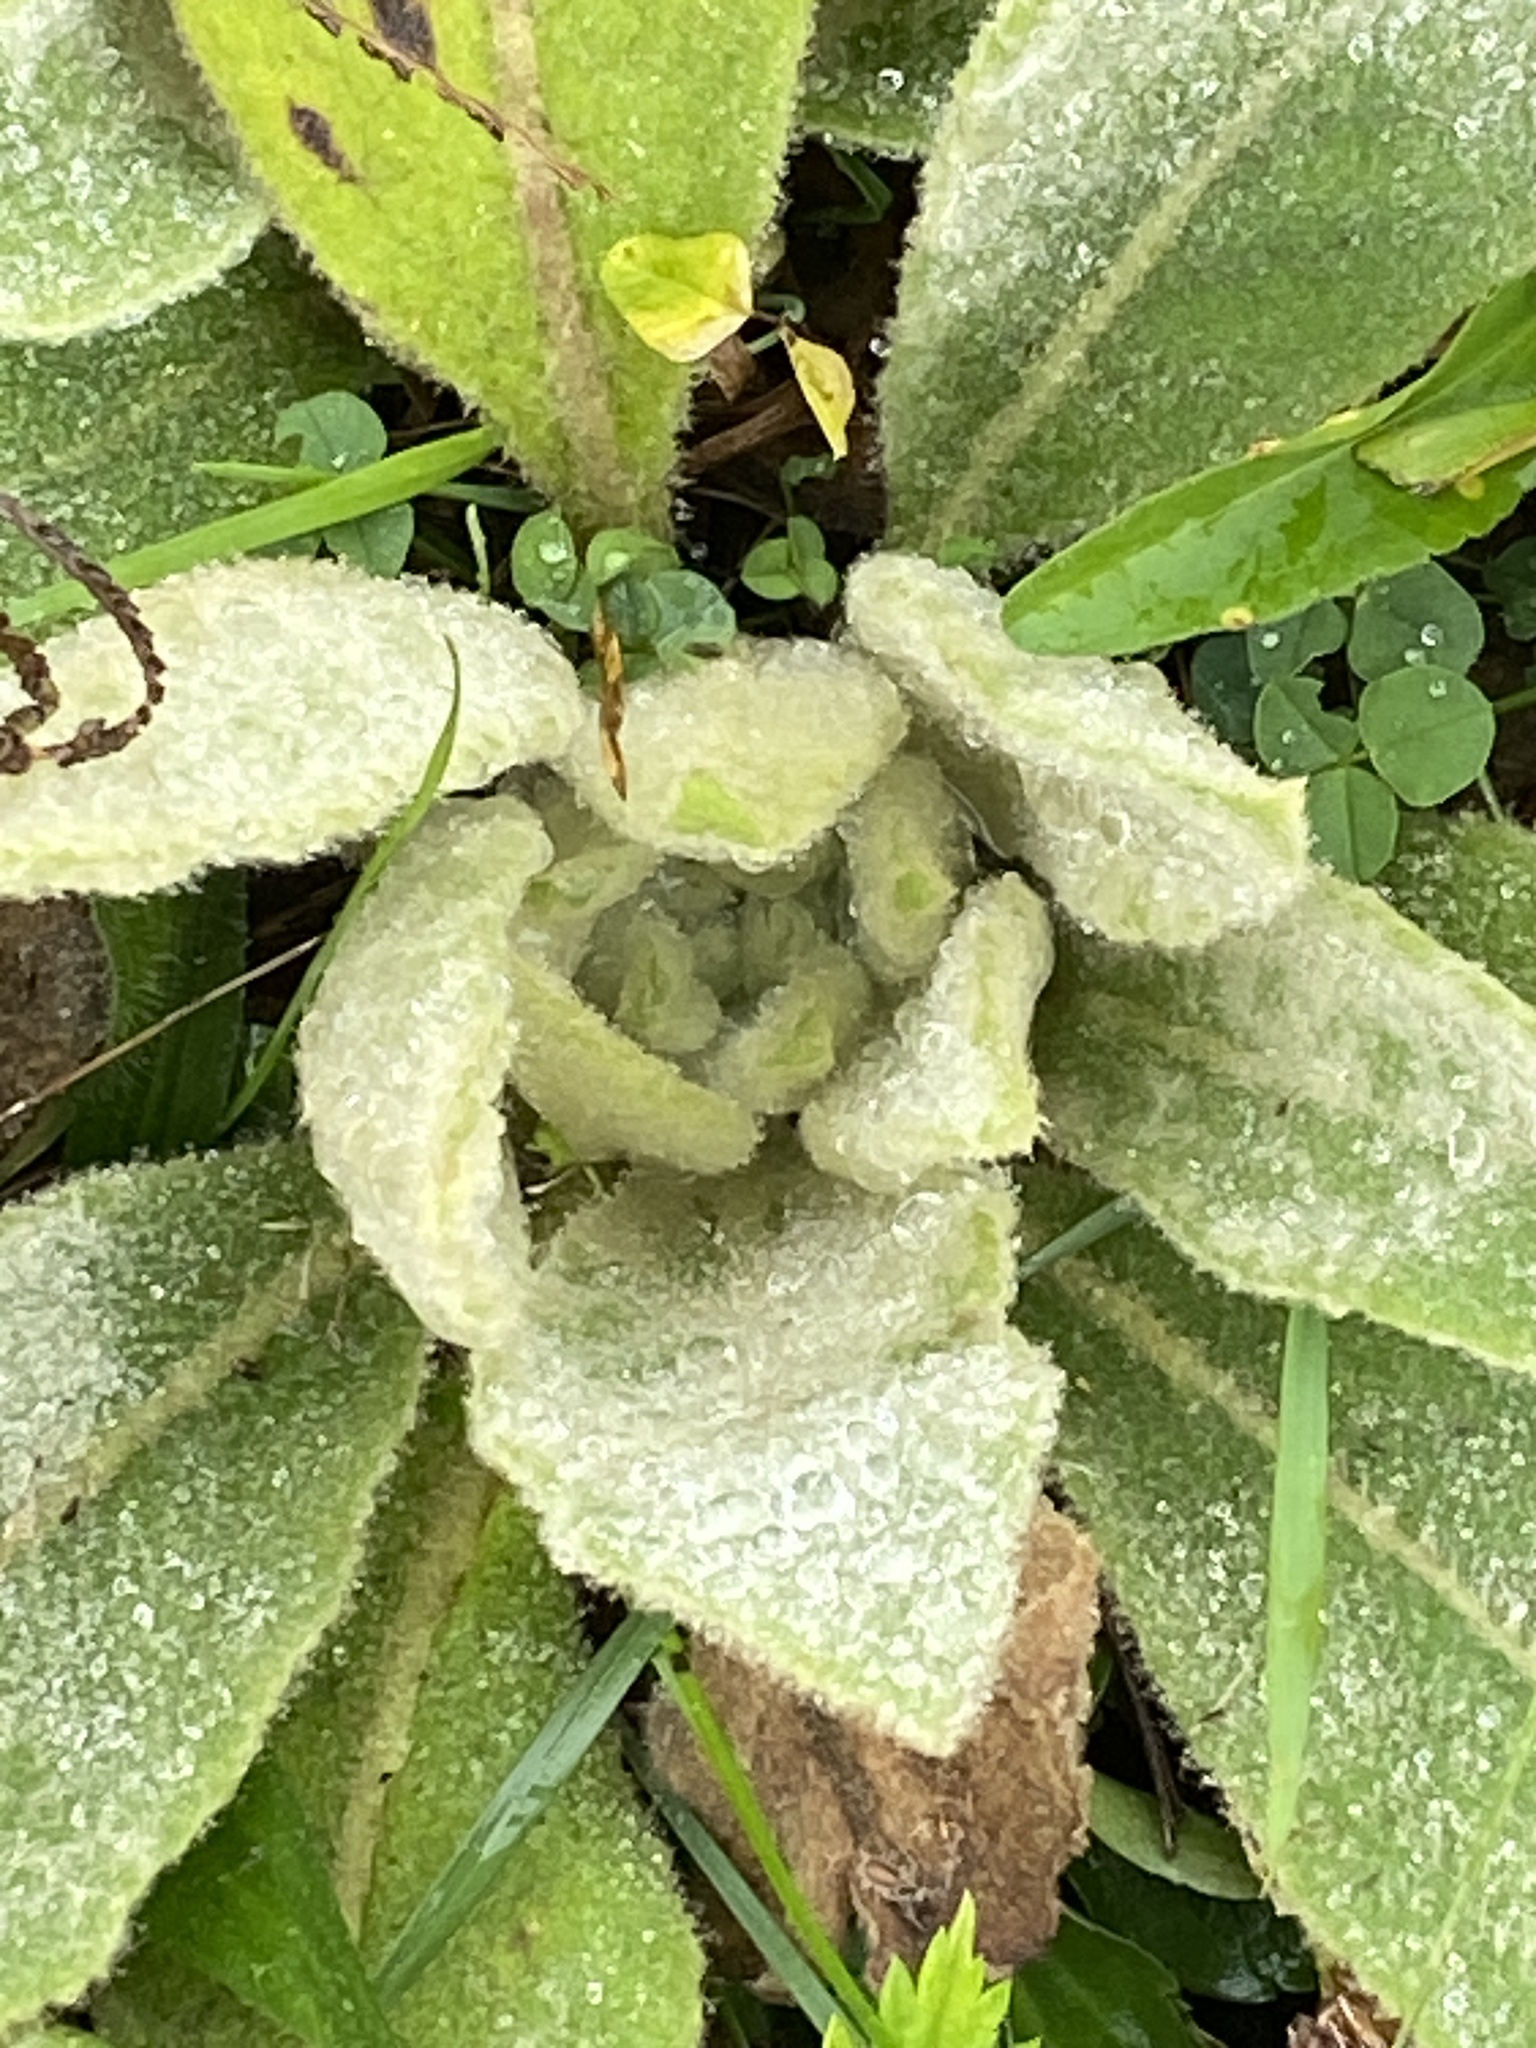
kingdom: Plantae
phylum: Tracheophyta
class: Magnoliopsida
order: Lamiales
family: Scrophulariaceae
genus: Verbascum
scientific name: Verbascum thapsus
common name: Common mullein
